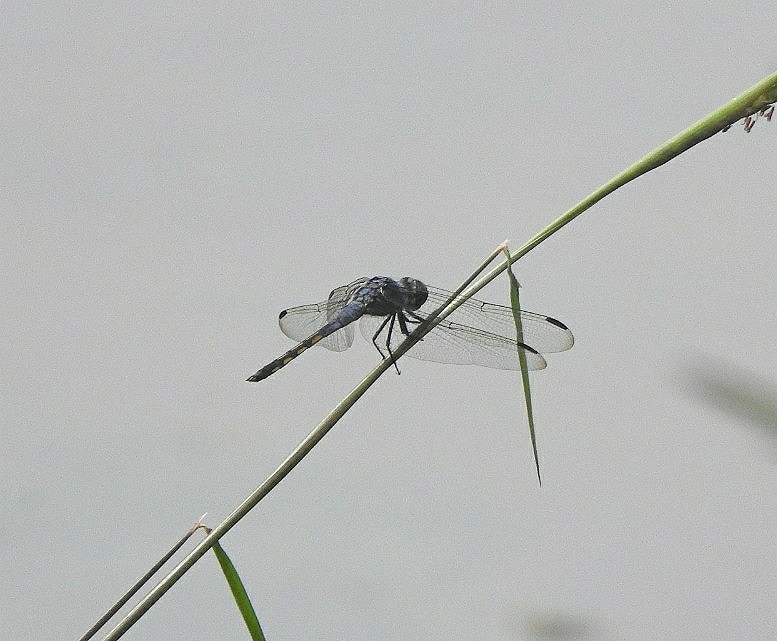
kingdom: Animalia
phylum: Arthropoda
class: Insecta
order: Odonata
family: Libellulidae
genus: Potamarcha
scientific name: Potamarcha congener
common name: Blue chaser
